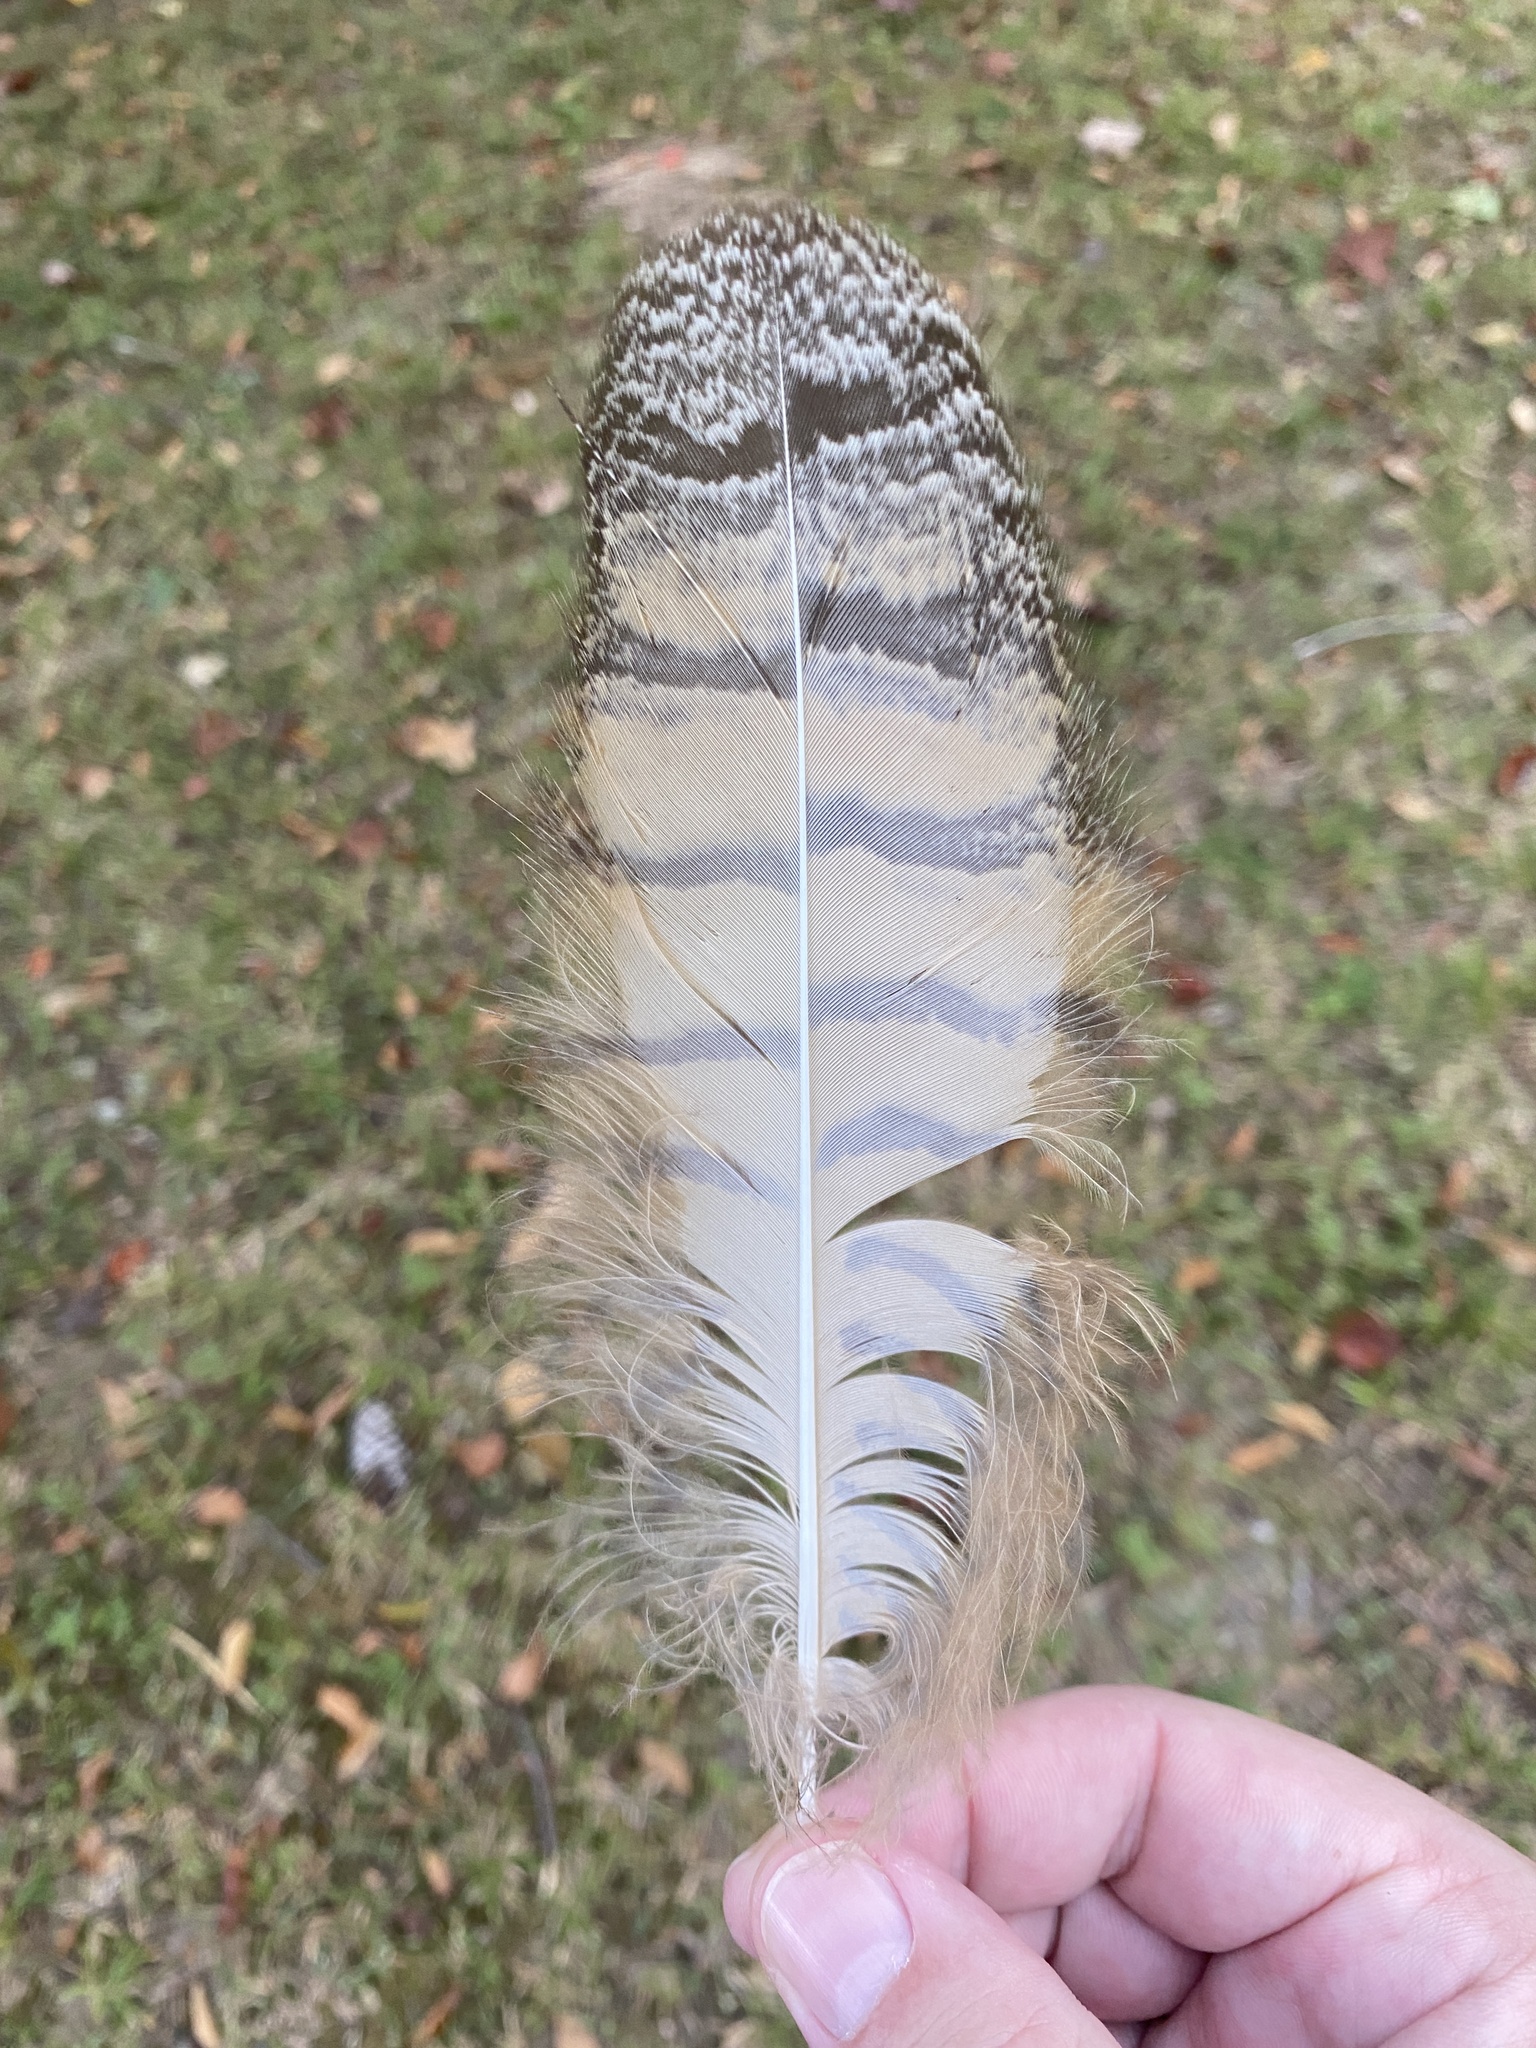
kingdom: Animalia
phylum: Chordata
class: Aves
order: Strigiformes
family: Strigidae
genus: Bubo
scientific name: Bubo virginianus
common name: Great horned owl
